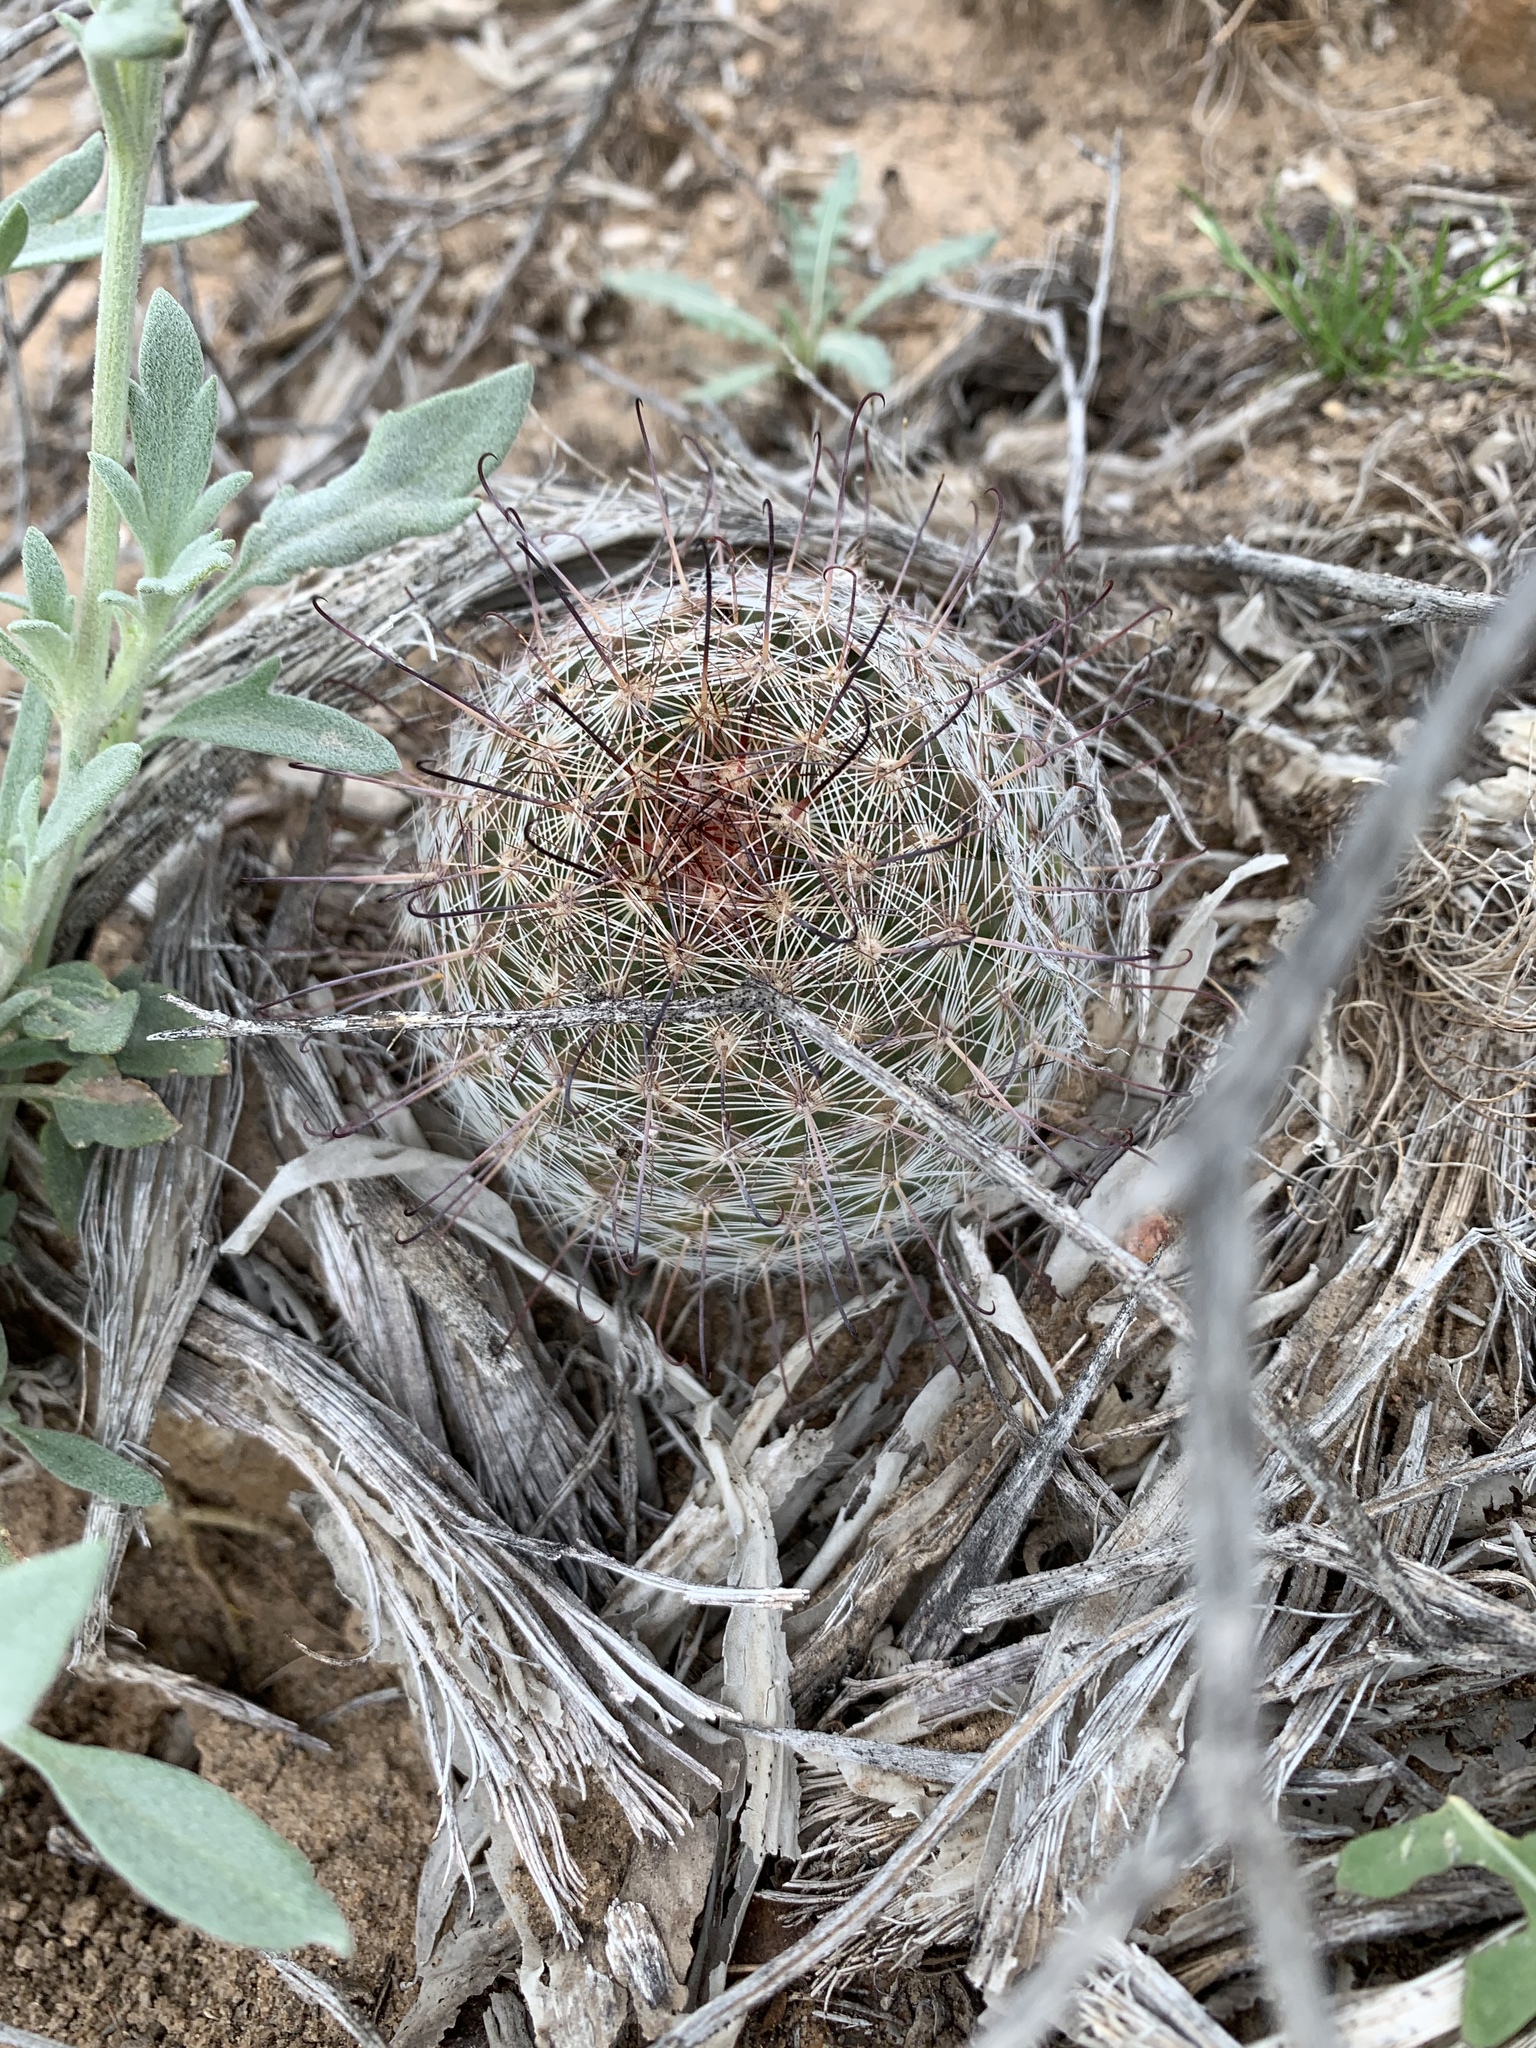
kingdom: Plantae
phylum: Tracheophyta
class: Magnoliopsida
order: Caryophyllales
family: Cactaceae
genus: Cochemiea
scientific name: Cochemiea grahamii
